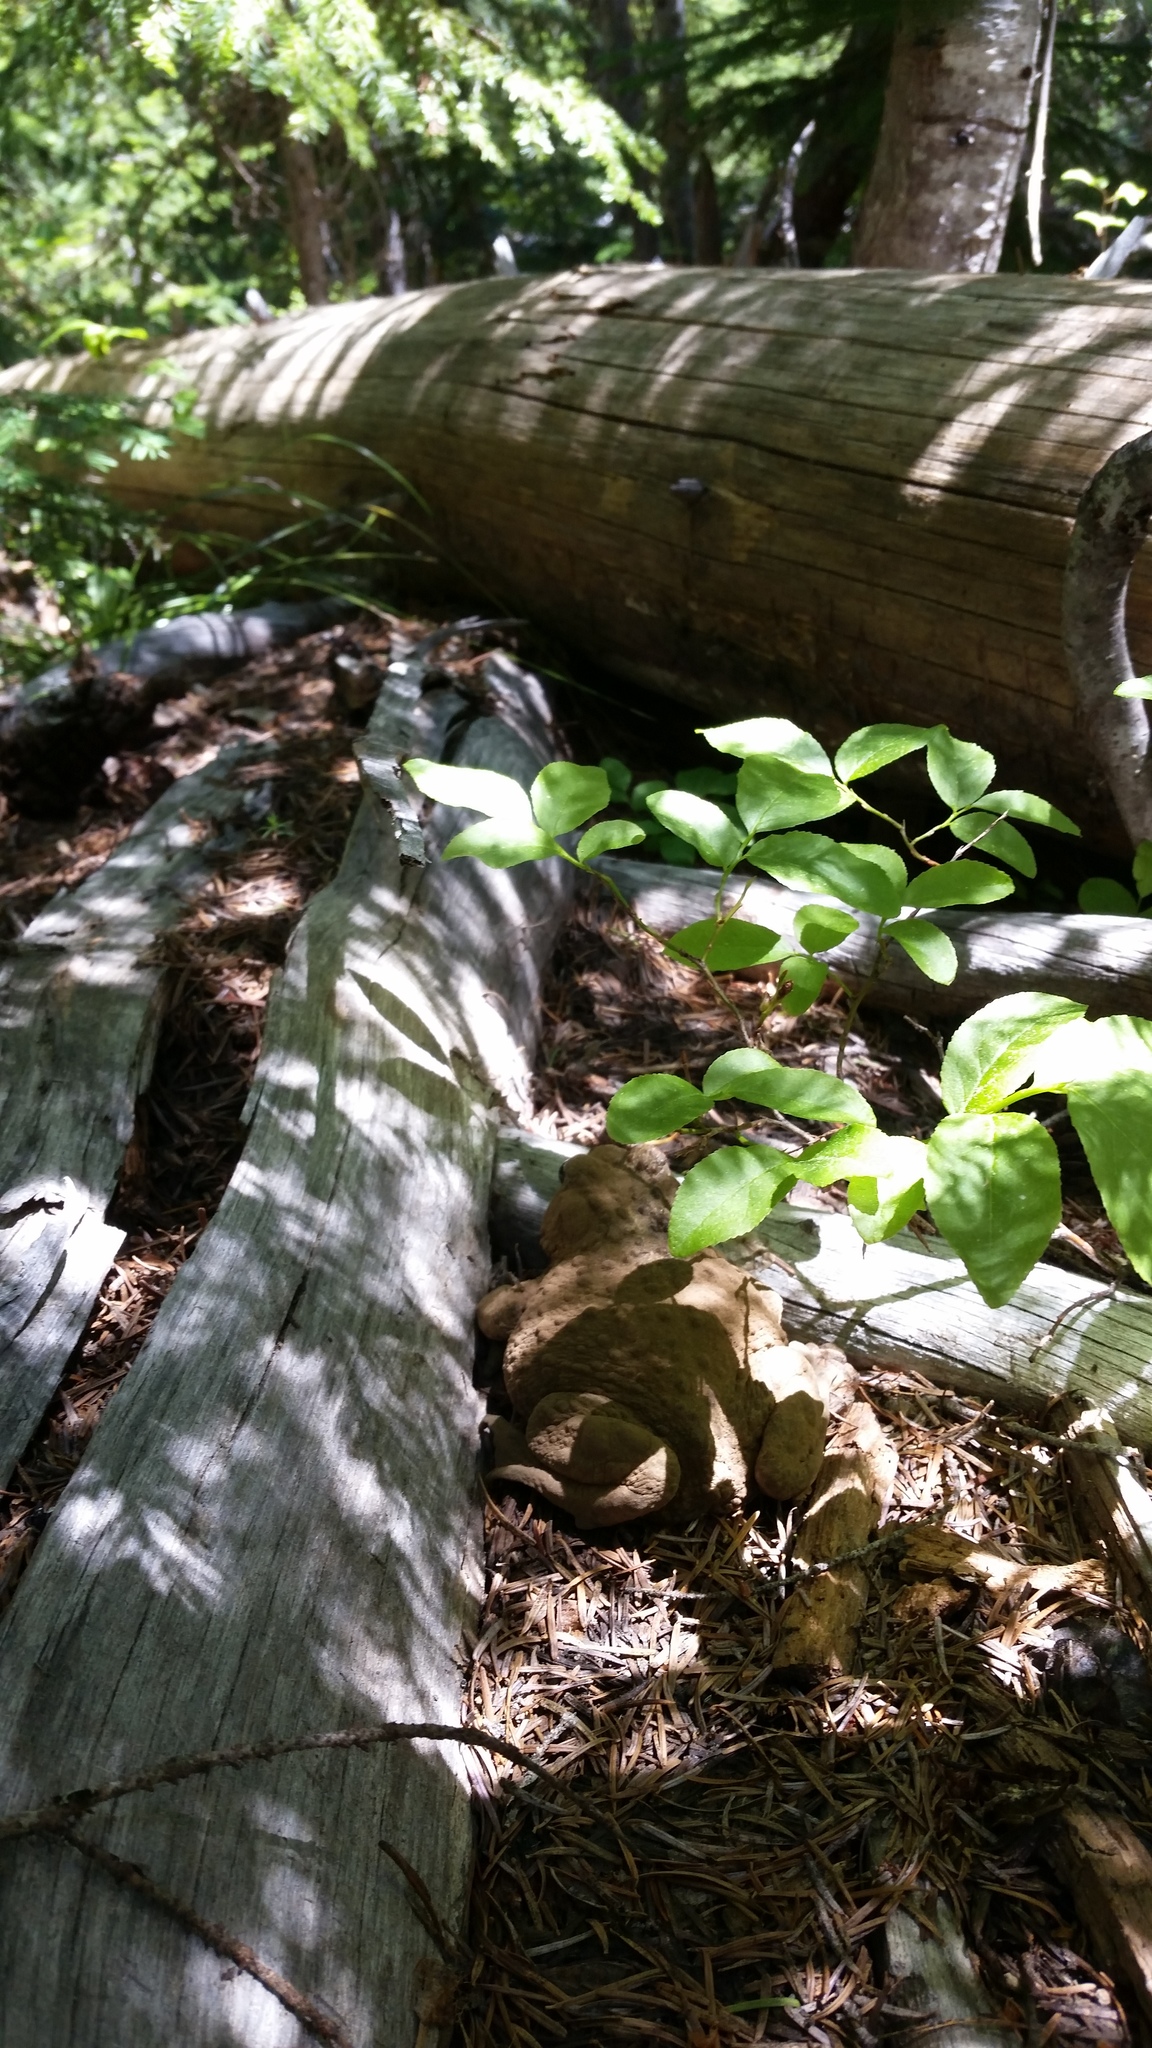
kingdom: Animalia
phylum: Chordata
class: Amphibia
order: Anura
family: Bufonidae
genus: Anaxyrus
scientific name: Anaxyrus boreas
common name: Western toad
